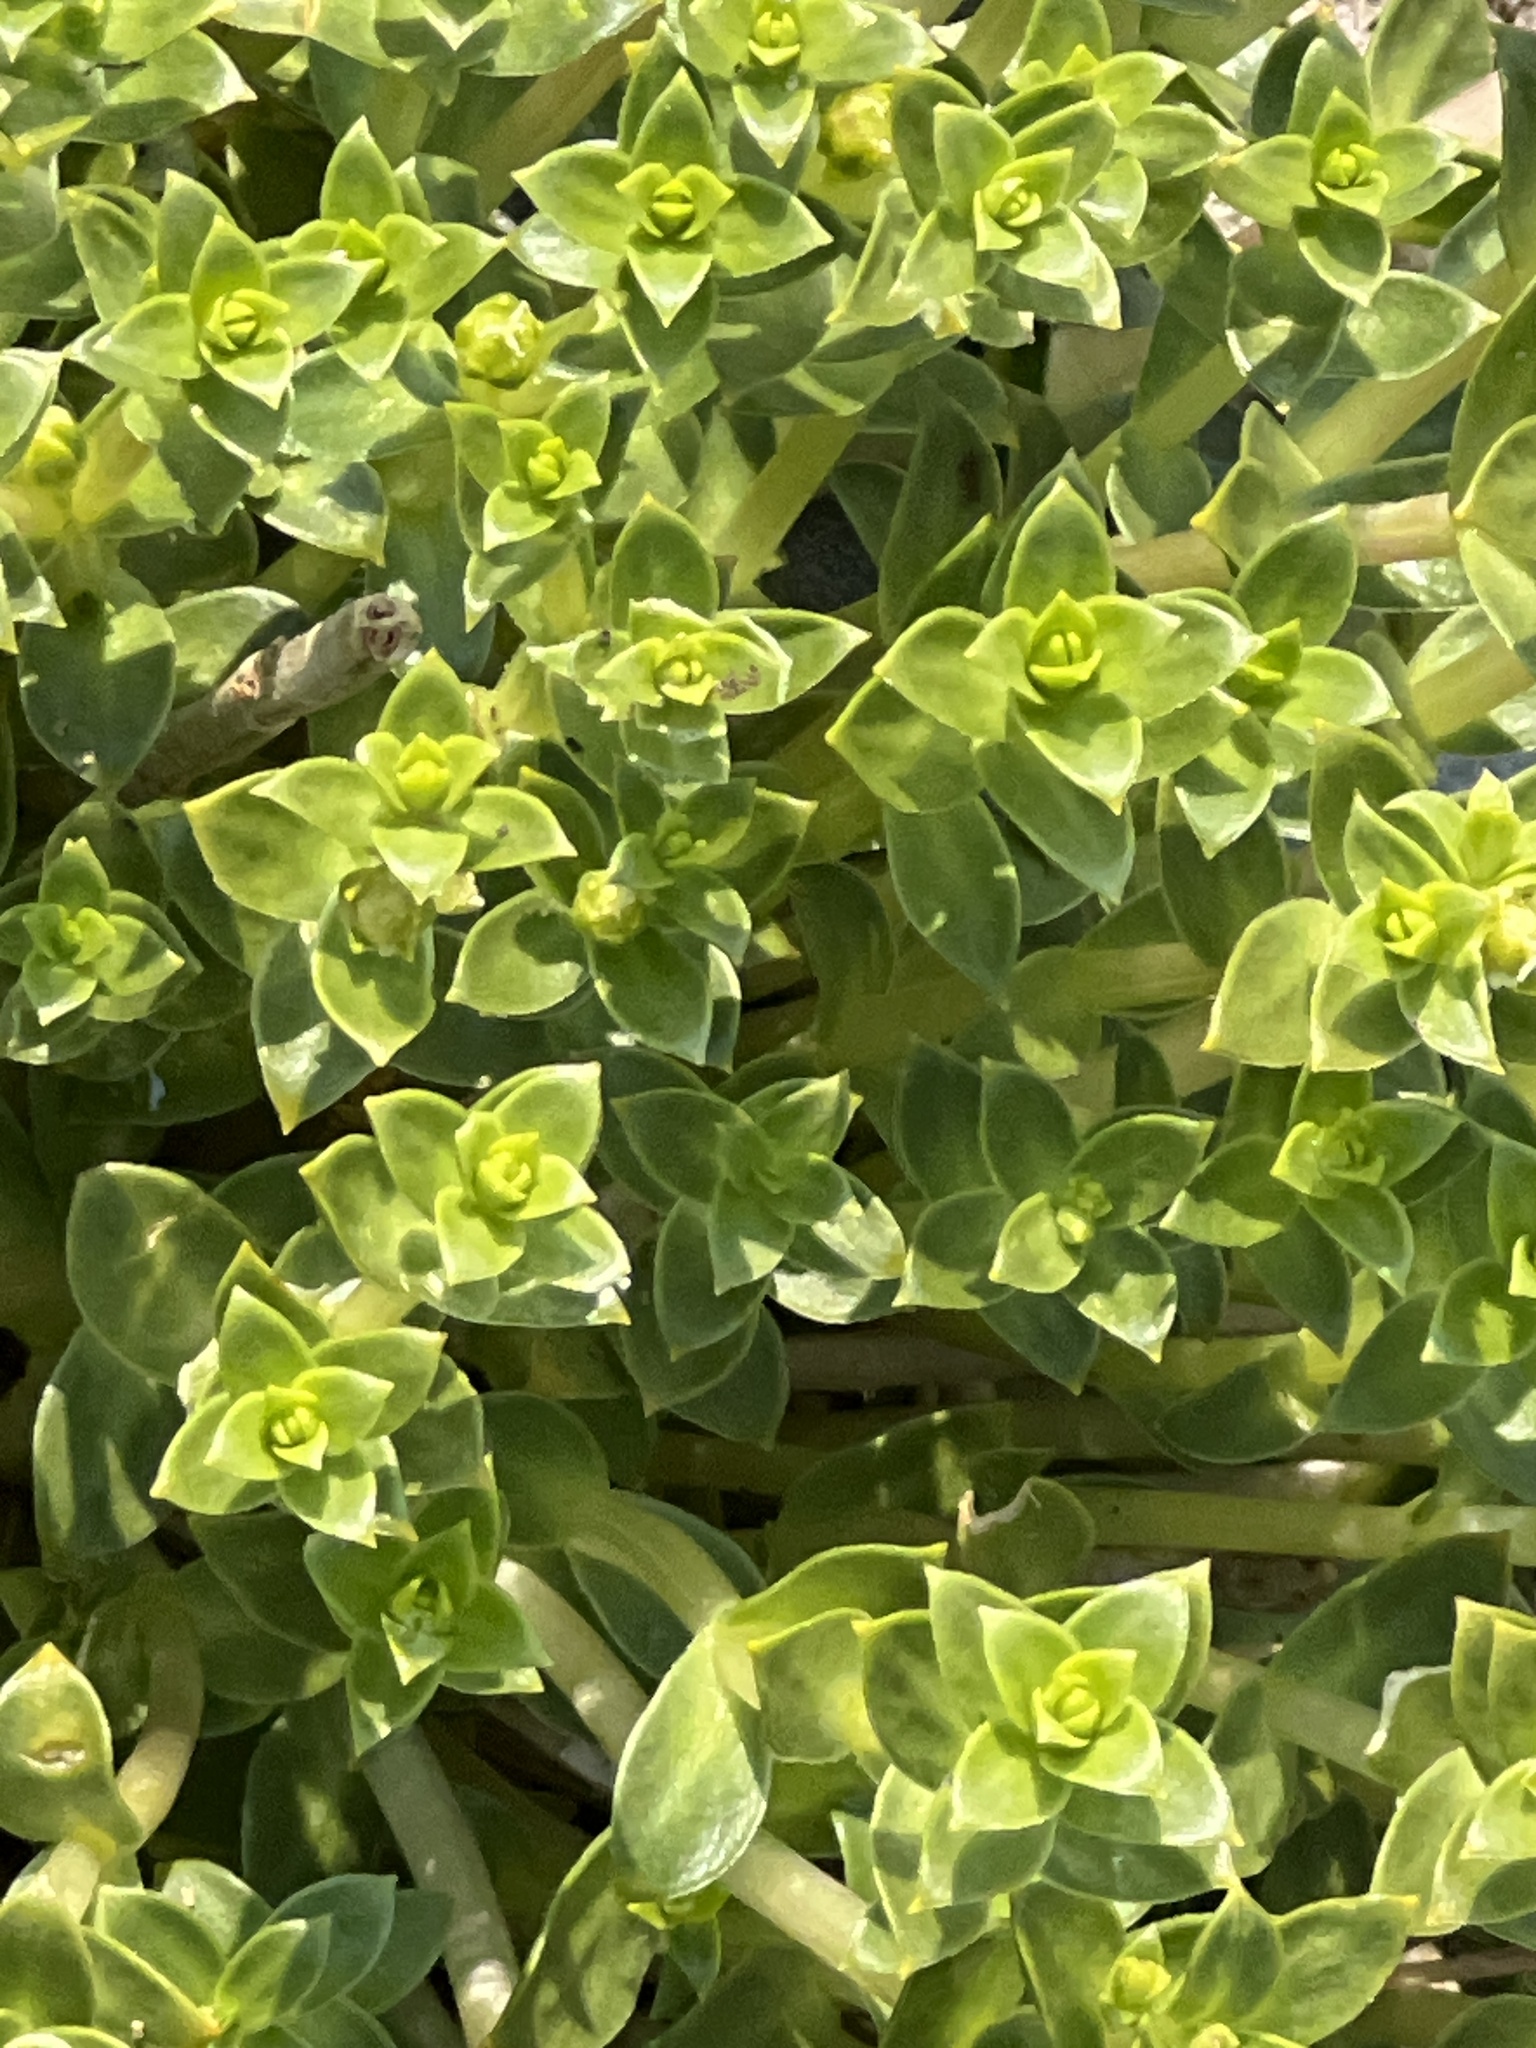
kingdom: Plantae
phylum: Tracheophyta
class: Magnoliopsida
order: Caryophyllales
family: Caryophyllaceae
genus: Honckenya
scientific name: Honckenya peploides
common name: Sea sandwort
